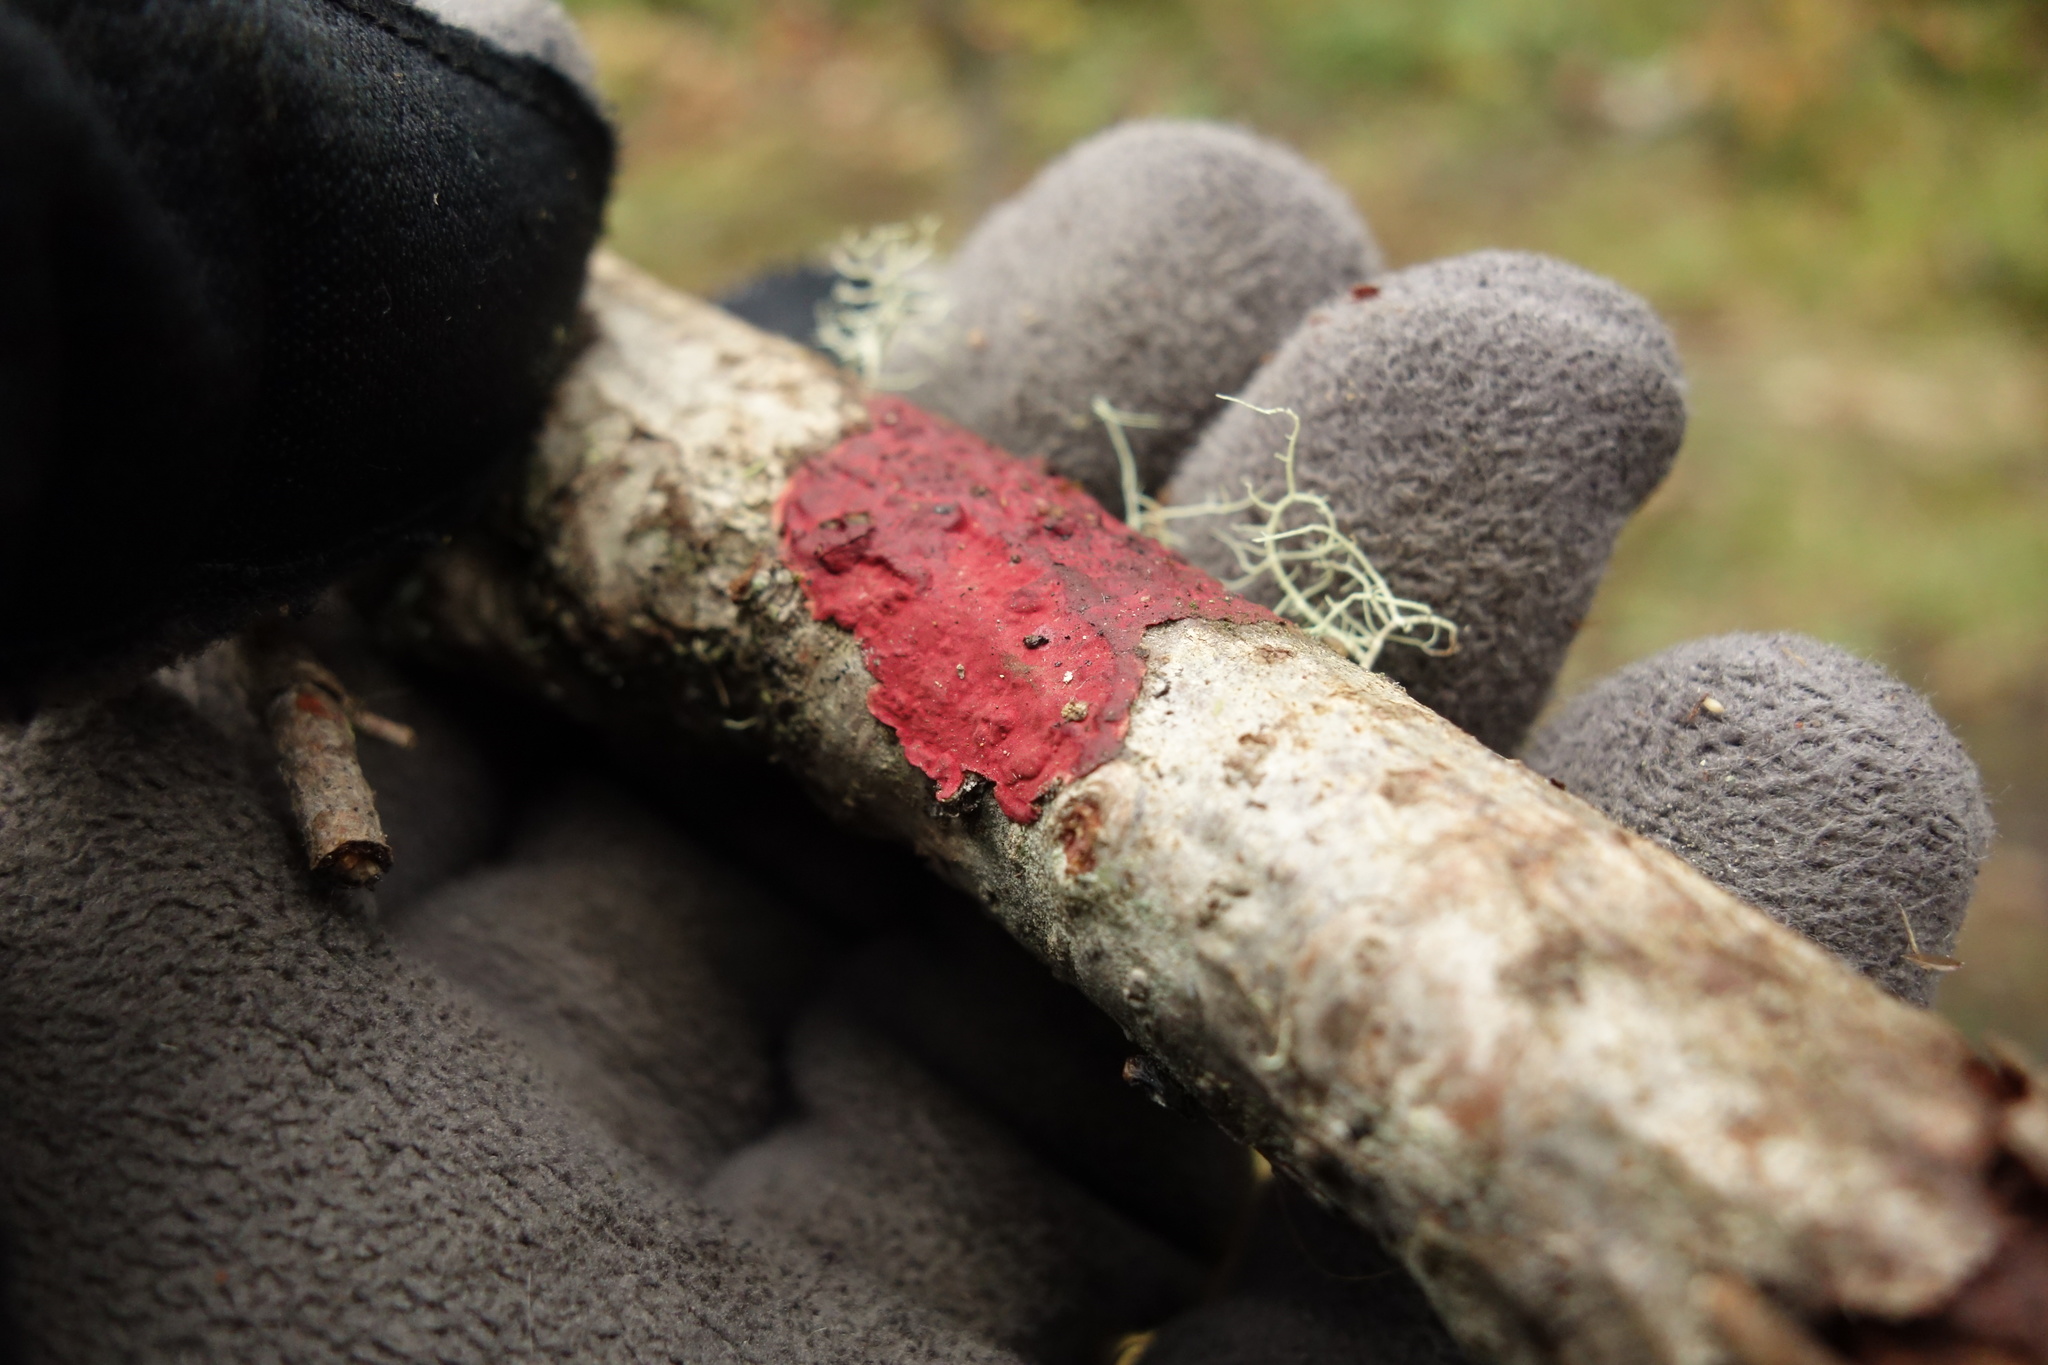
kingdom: Fungi
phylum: Basidiomycota
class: Agaricomycetes
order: Hymenochaetales
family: Hymenochaetaceae
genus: Hymenochaete
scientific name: Hymenochaete cruenta
